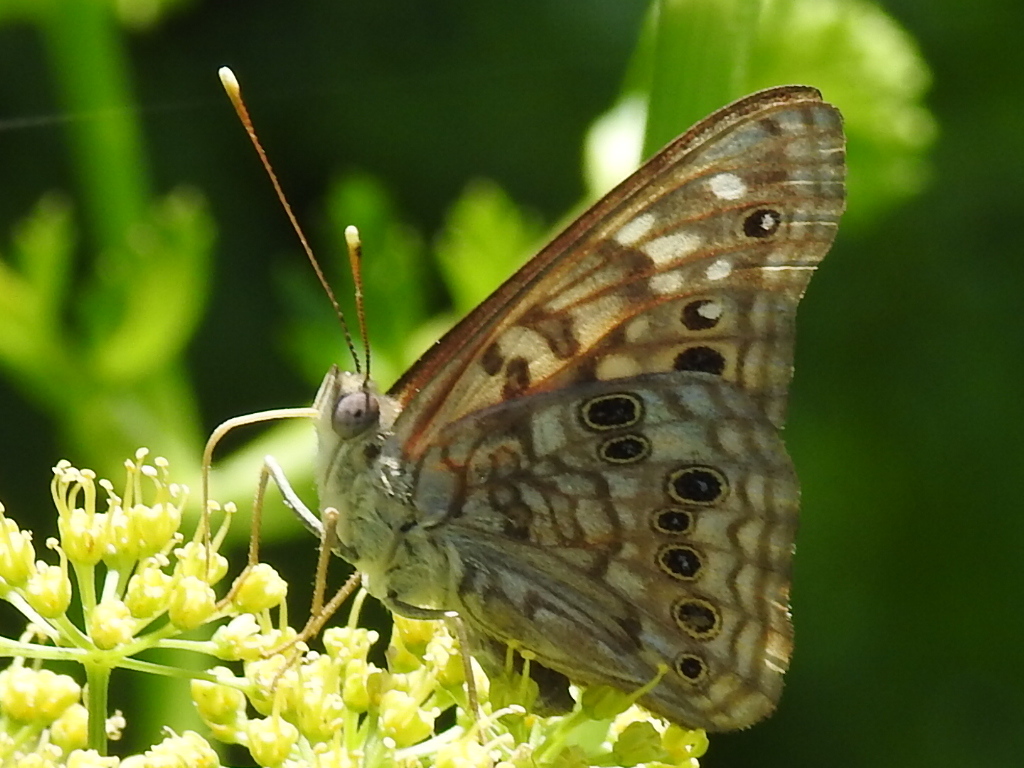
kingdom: Animalia
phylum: Arthropoda
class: Insecta
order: Lepidoptera
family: Nymphalidae
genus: Asterocampa
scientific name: Asterocampa celtis
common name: Hackberry emperor
